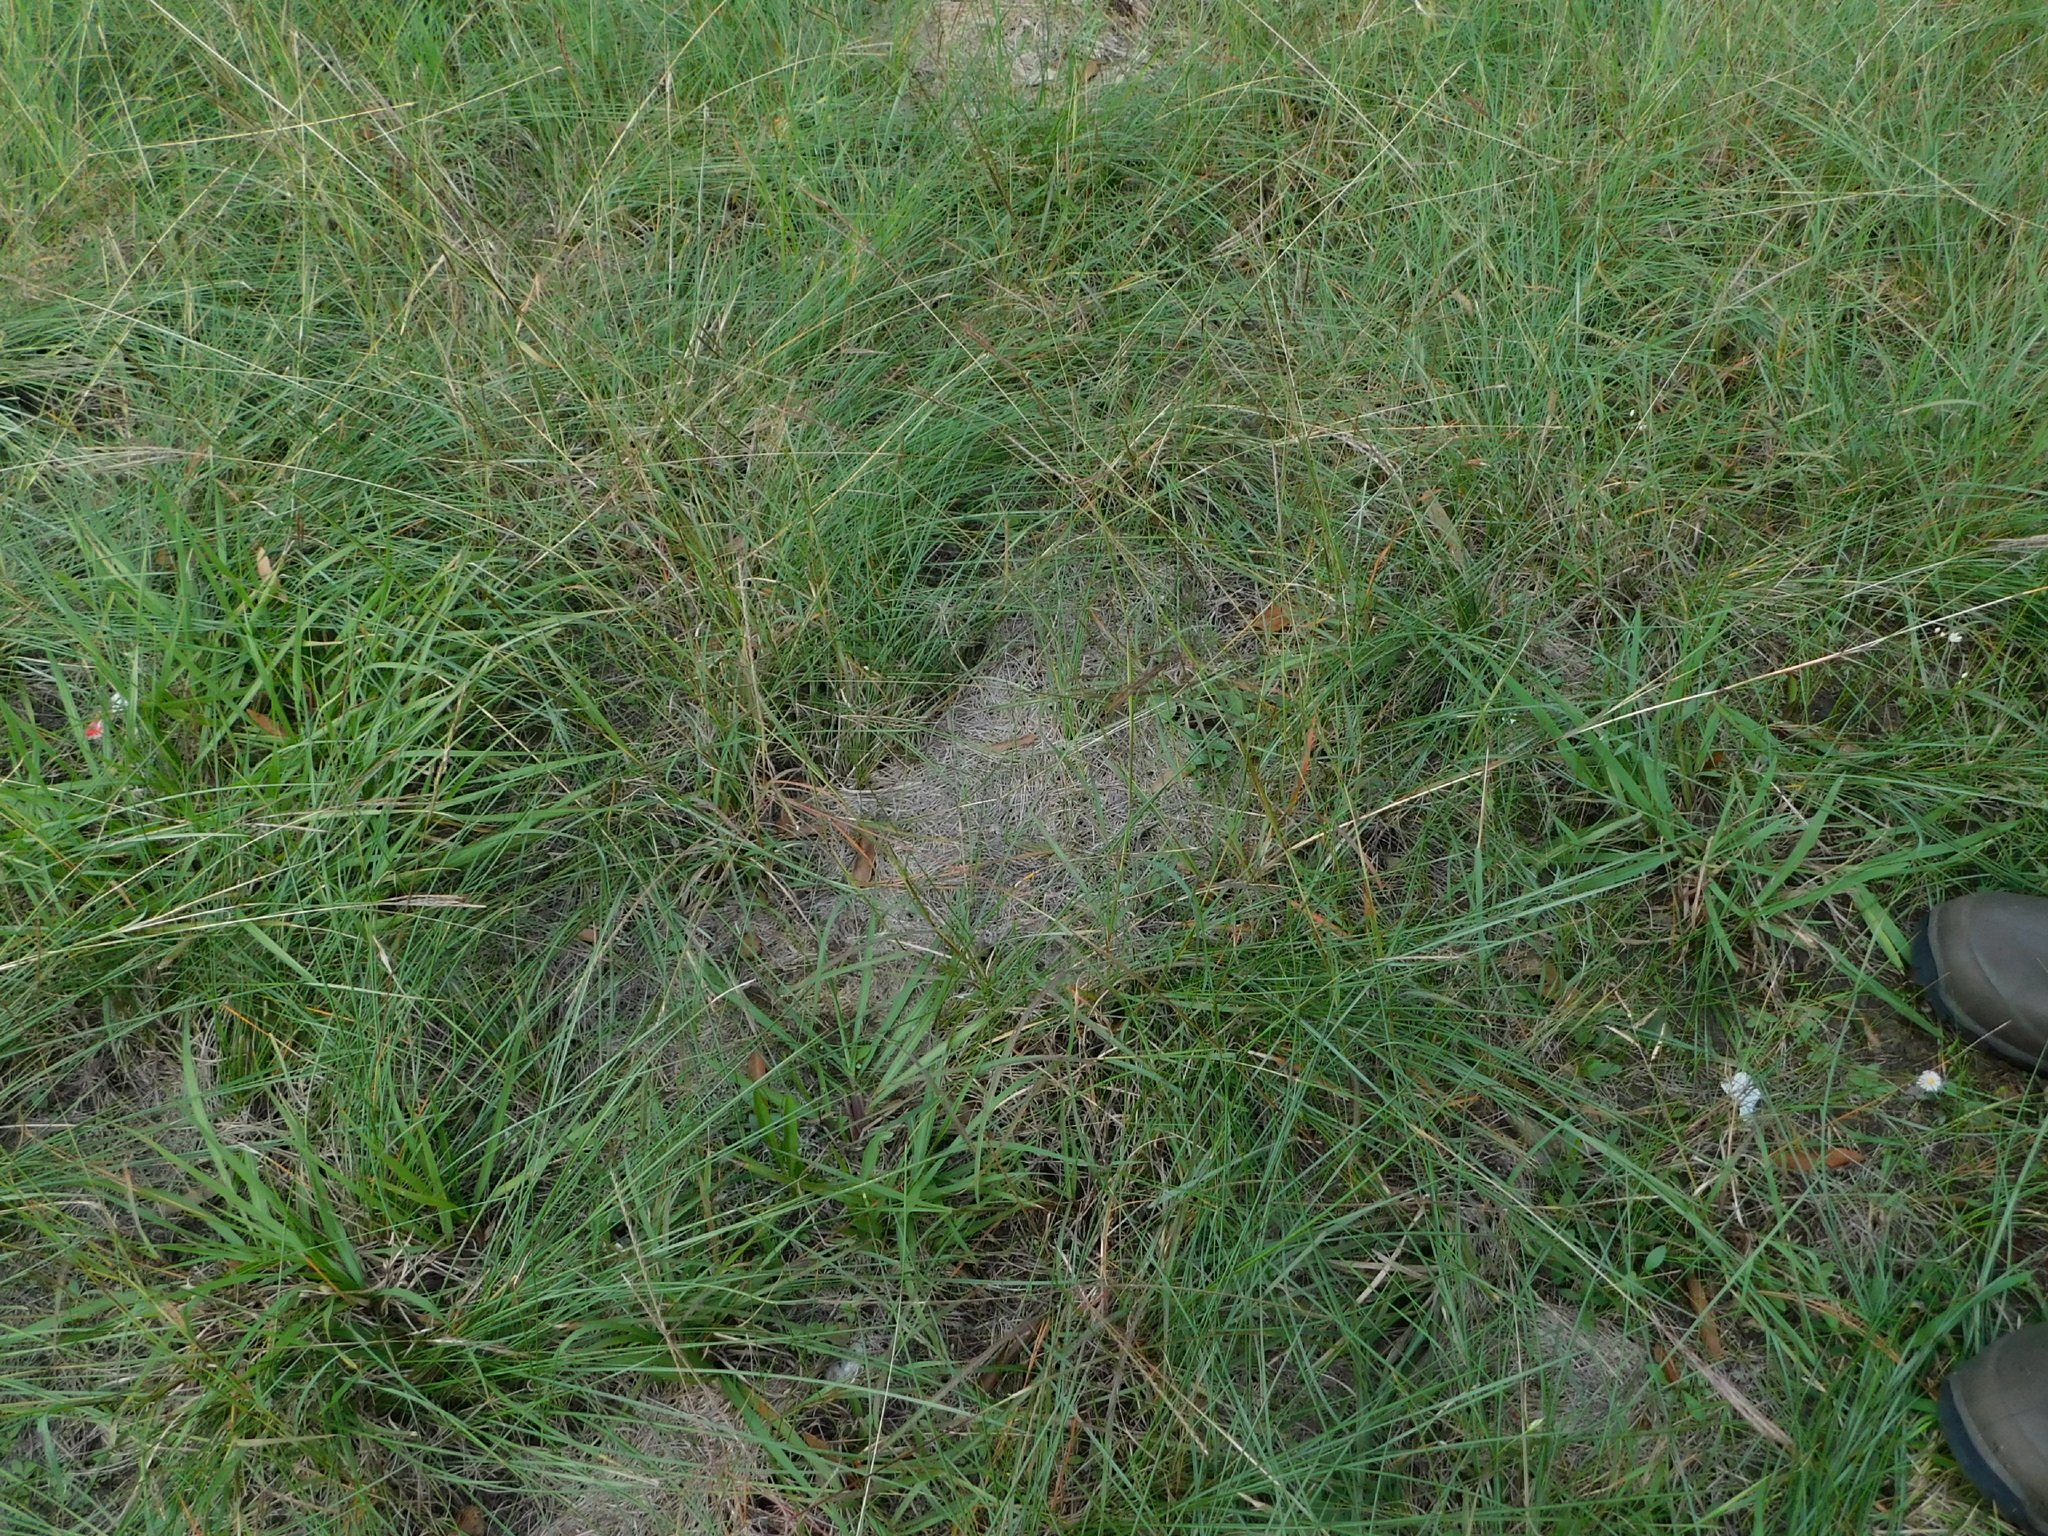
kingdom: Plantae
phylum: Tracheophyta
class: Liliopsida
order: Poales
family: Poaceae
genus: Chloris
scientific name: Chloris texensis
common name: Texas windmill grass
